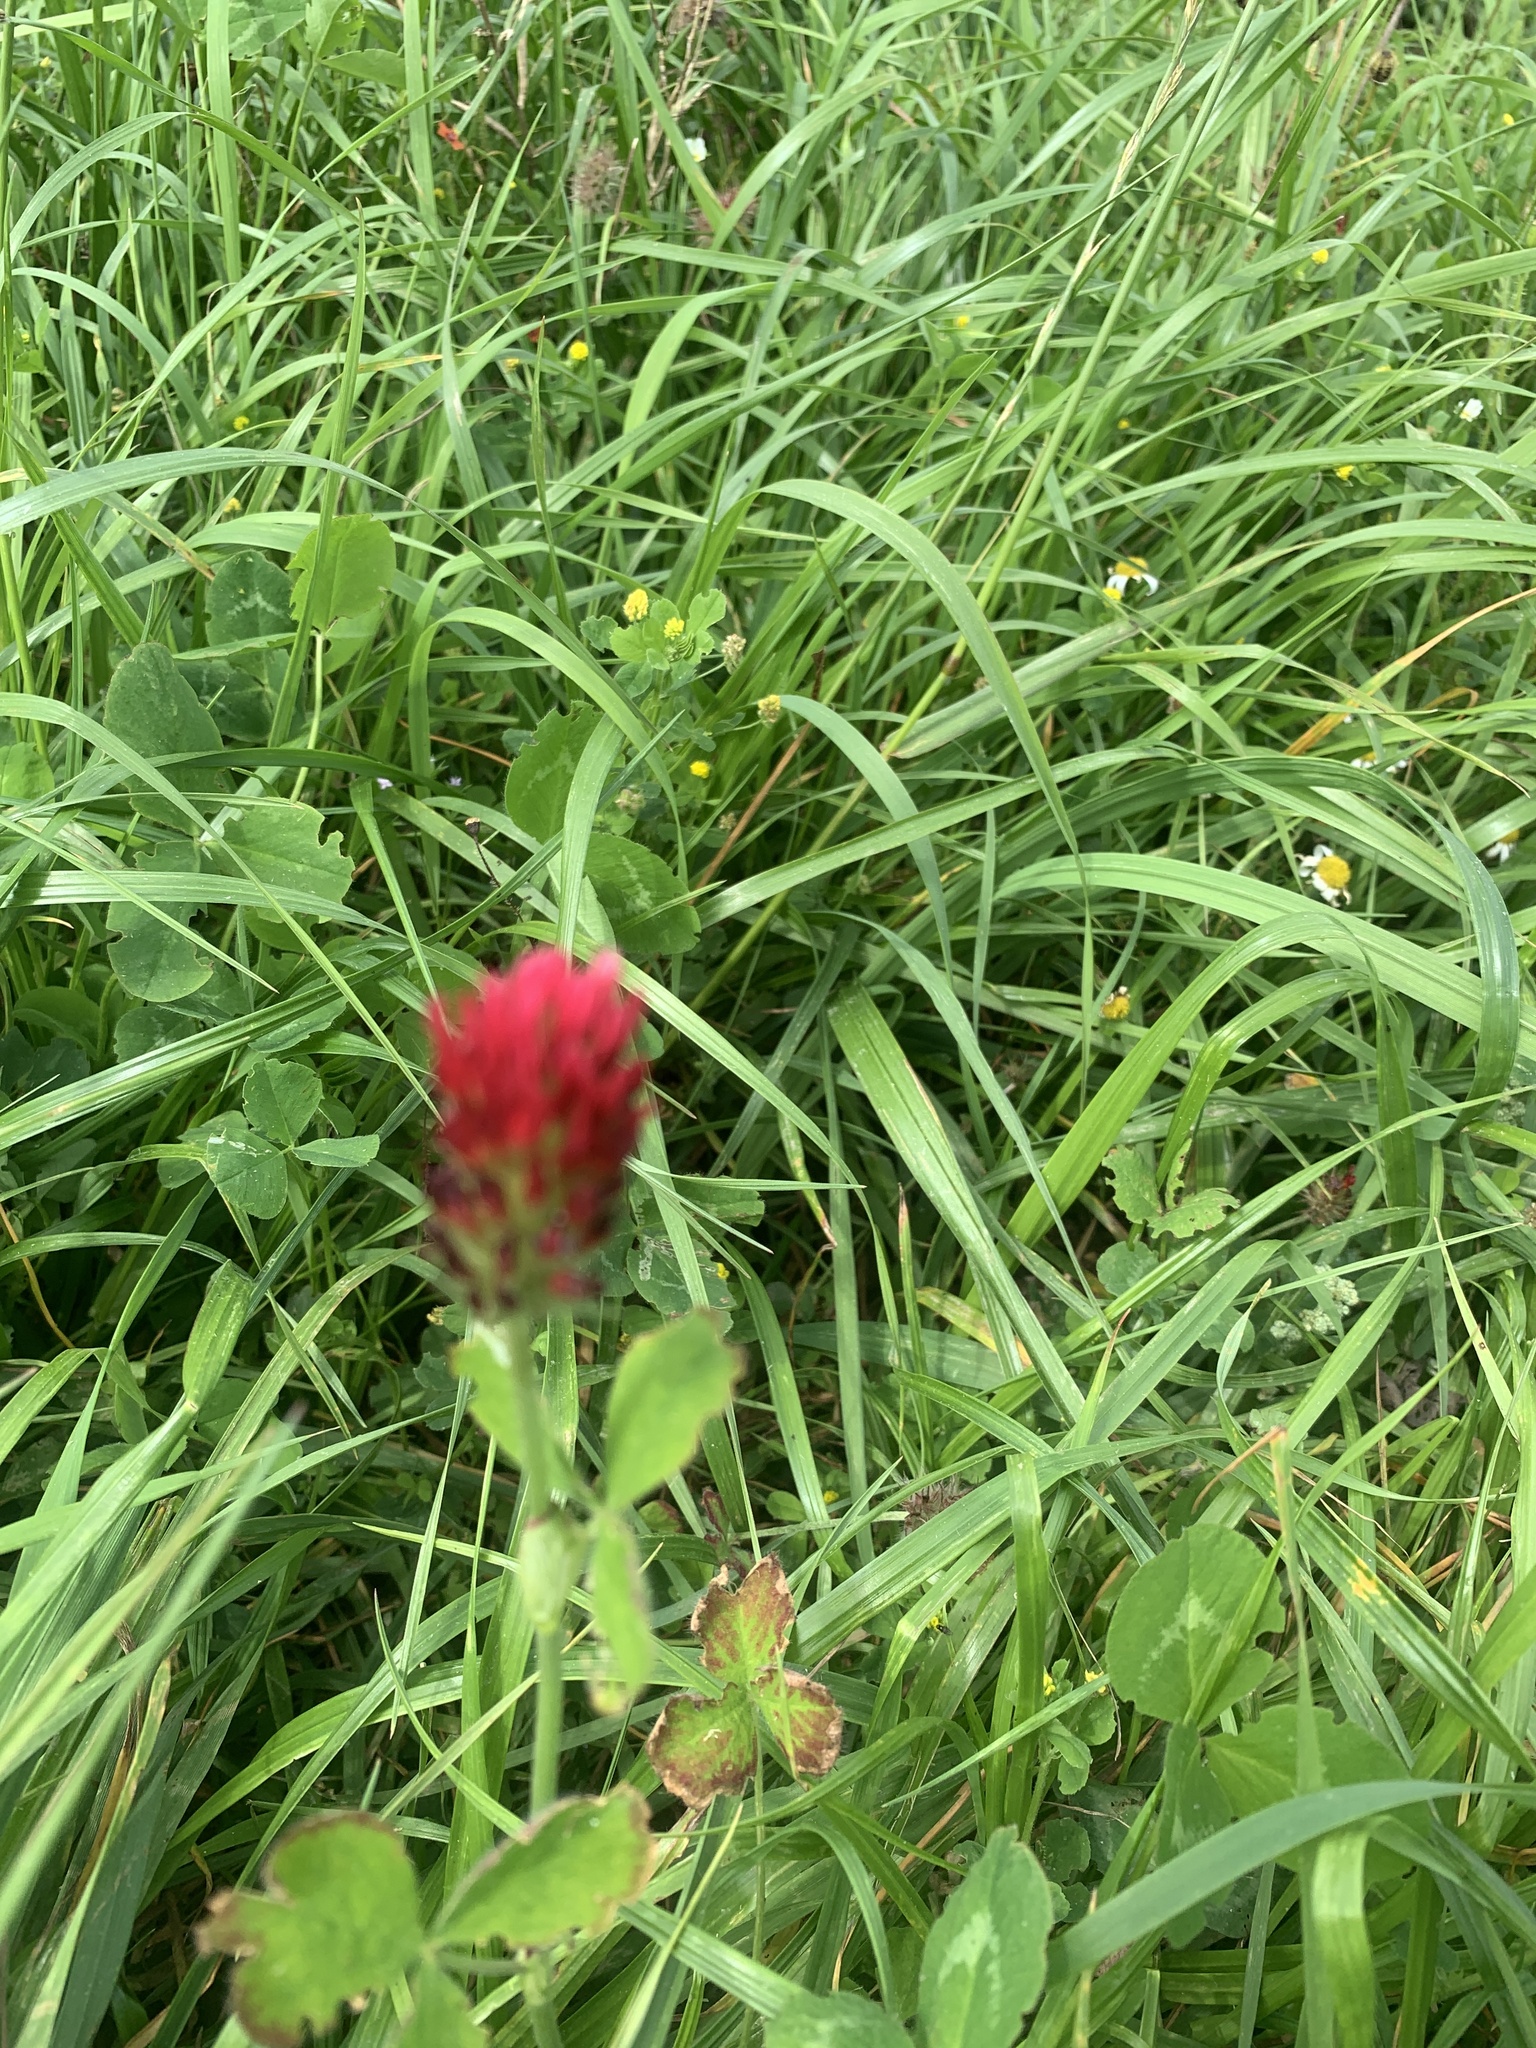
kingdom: Plantae
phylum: Tracheophyta
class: Magnoliopsida
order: Fabales
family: Fabaceae
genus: Trifolium
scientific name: Trifolium incarnatum
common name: Crimson clover
